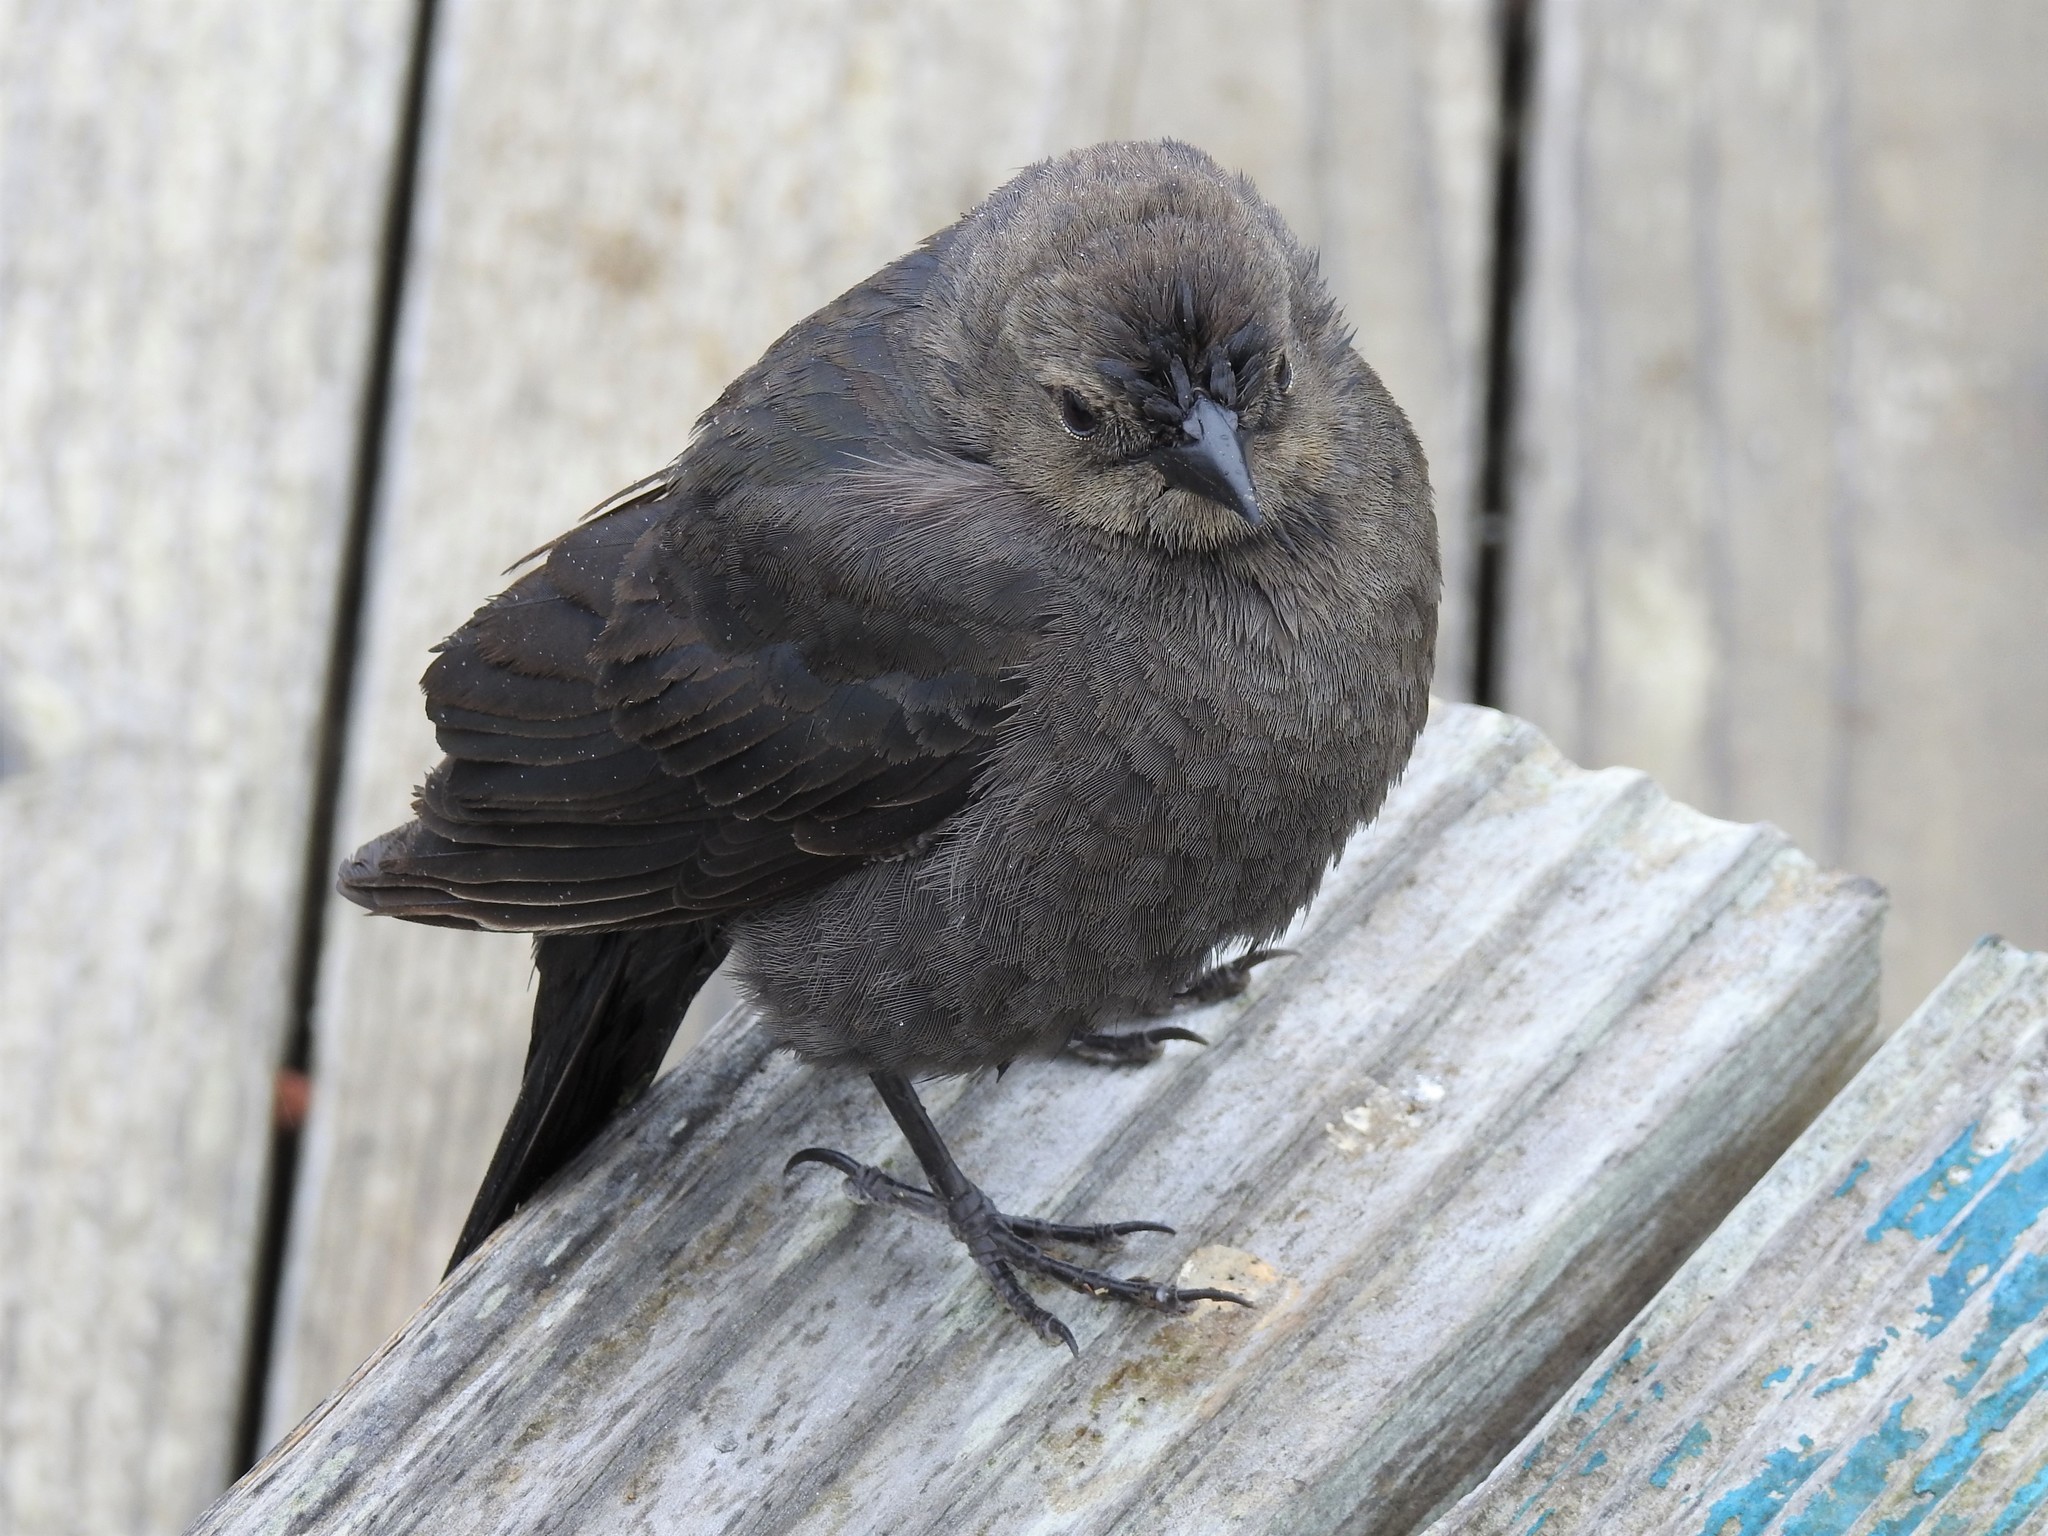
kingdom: Animalia
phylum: Chordata
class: Aves
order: Passeriformes
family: Icteridae
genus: Molothrus
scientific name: Molothrus ater
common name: Brown-headed cowbird
